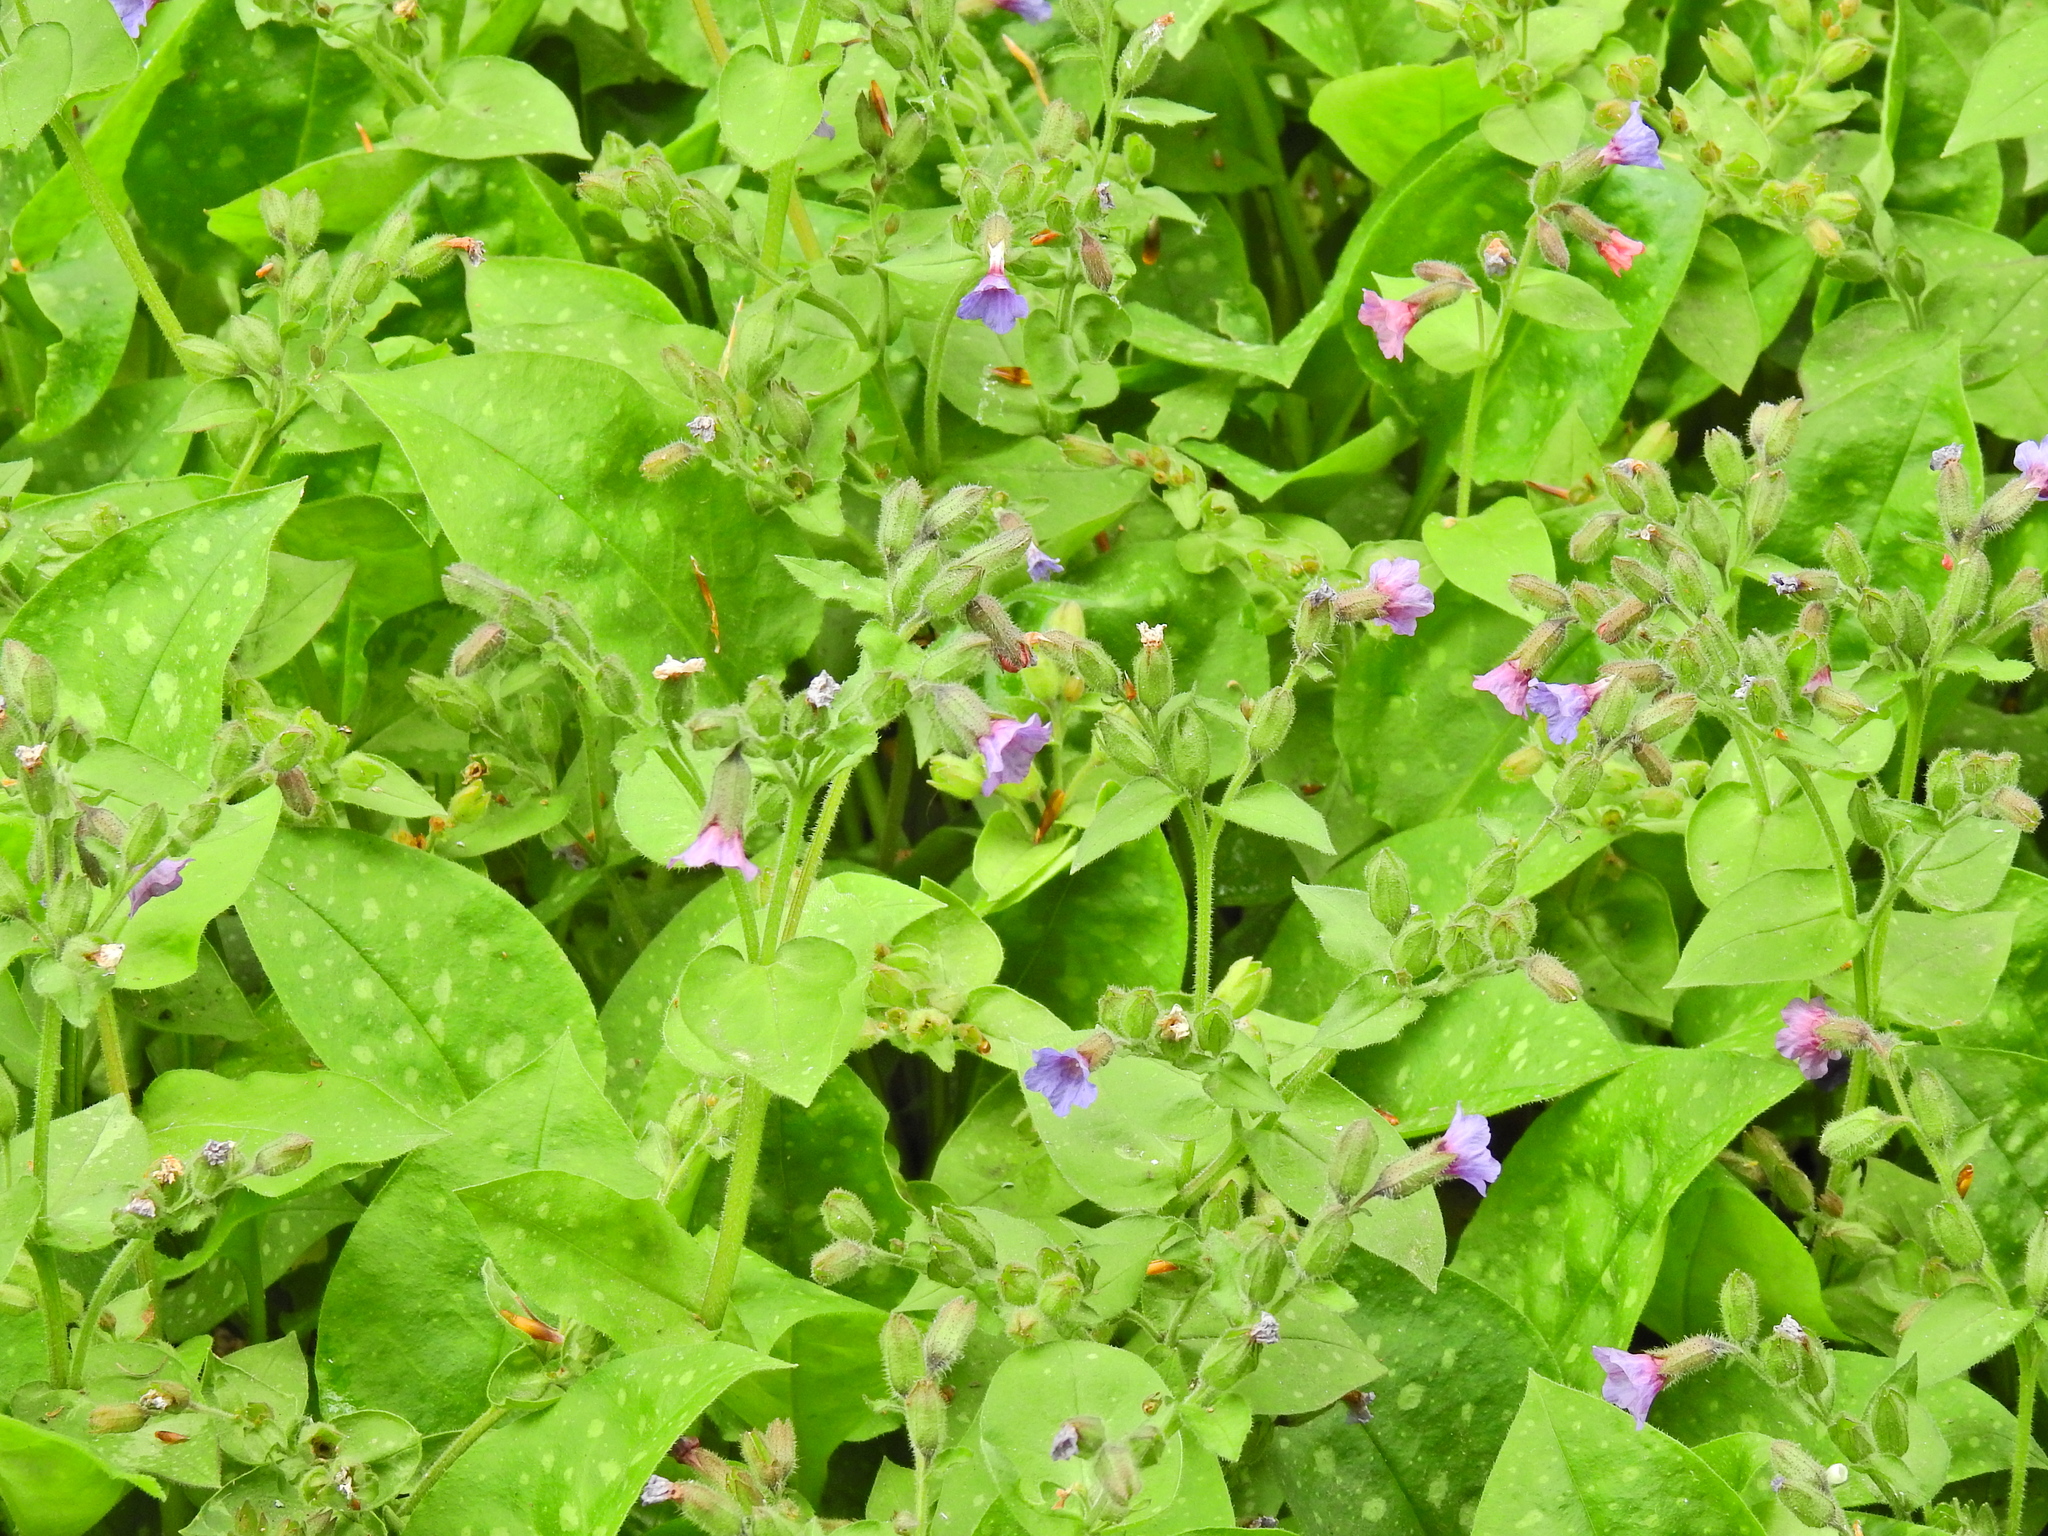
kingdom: Plantae
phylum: Tracheophyta
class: Magnoliopsida
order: Boraginales
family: Boraginaceae
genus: Pulmonaria
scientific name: Pulmonaria officinalis
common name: Lungwort
